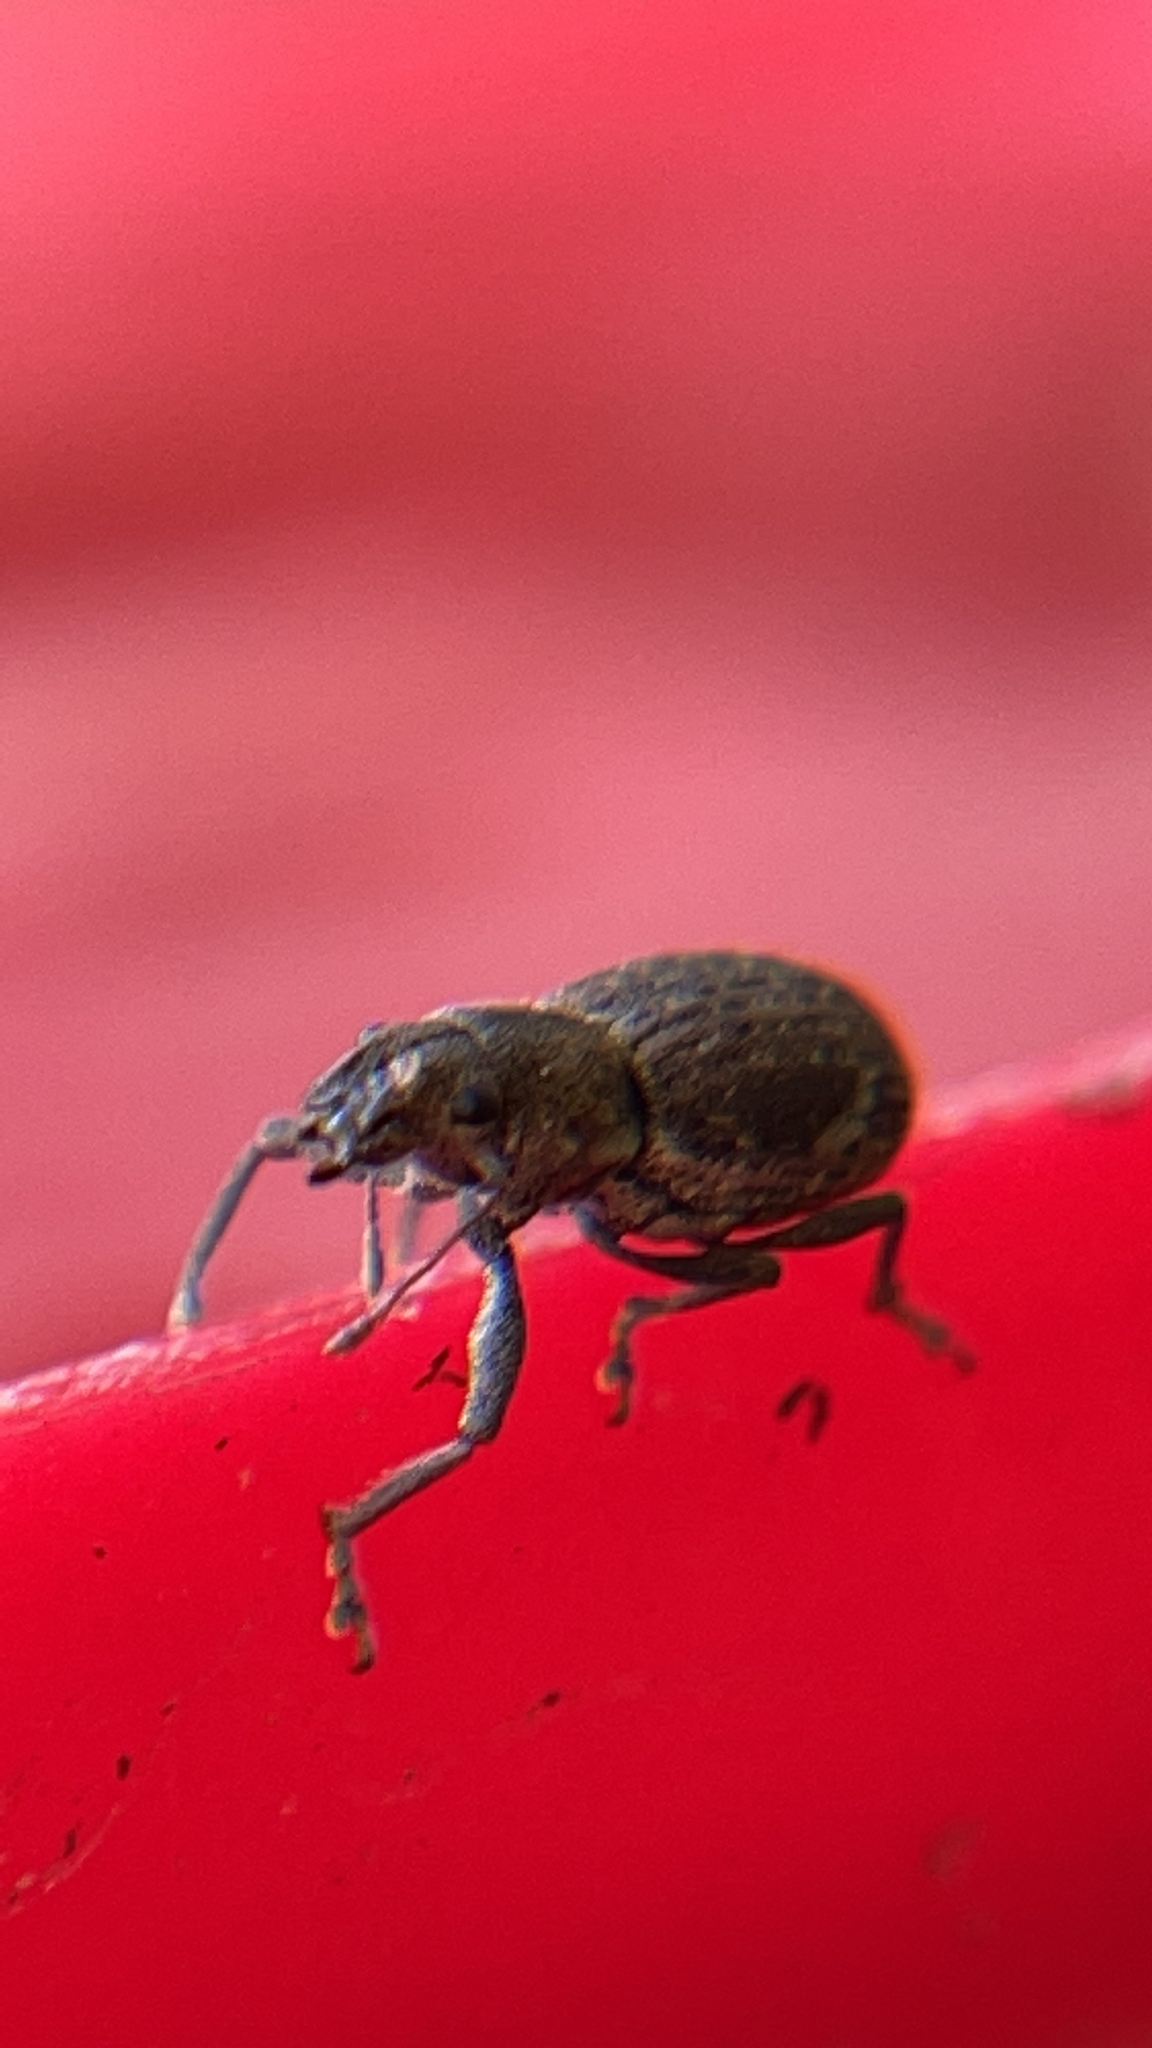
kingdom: Animalia
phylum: Arthropoda
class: Insecta
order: Coleoptera
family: Curculionidae
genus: Naupactus
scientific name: Naupactus cervinus
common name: Fuller rose beetle
